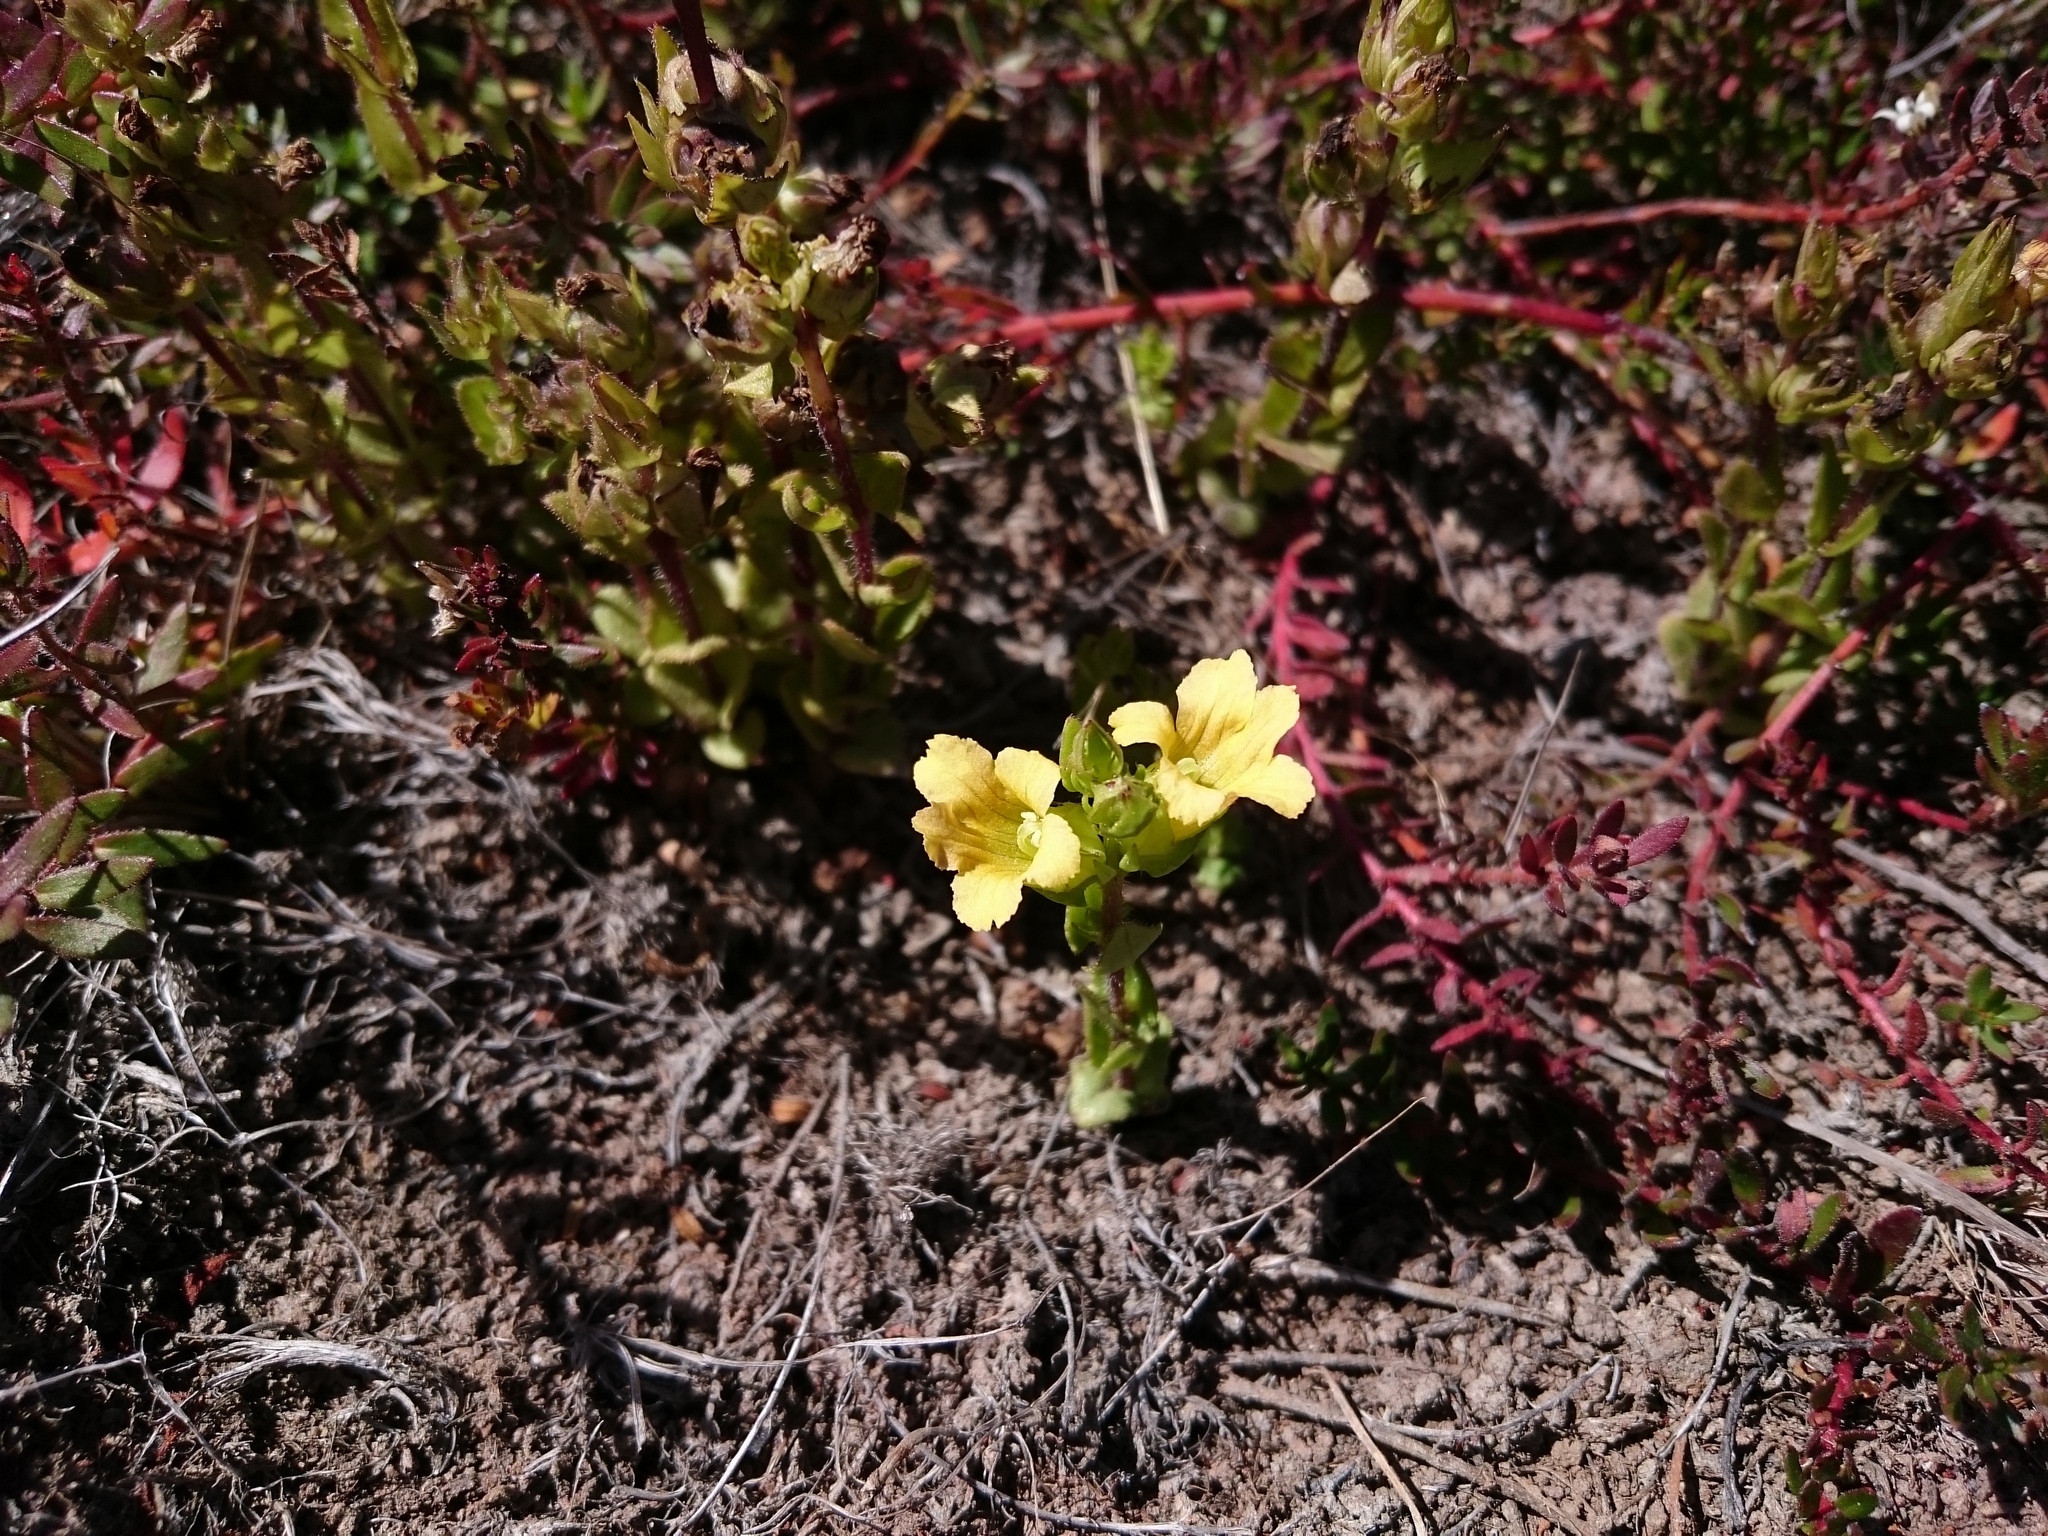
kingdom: Plantae
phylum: Tracheophyta
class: Magnoliopsida
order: Lamiales
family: Orobanchaceae
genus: Alectra
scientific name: Alectra sessiliflora
